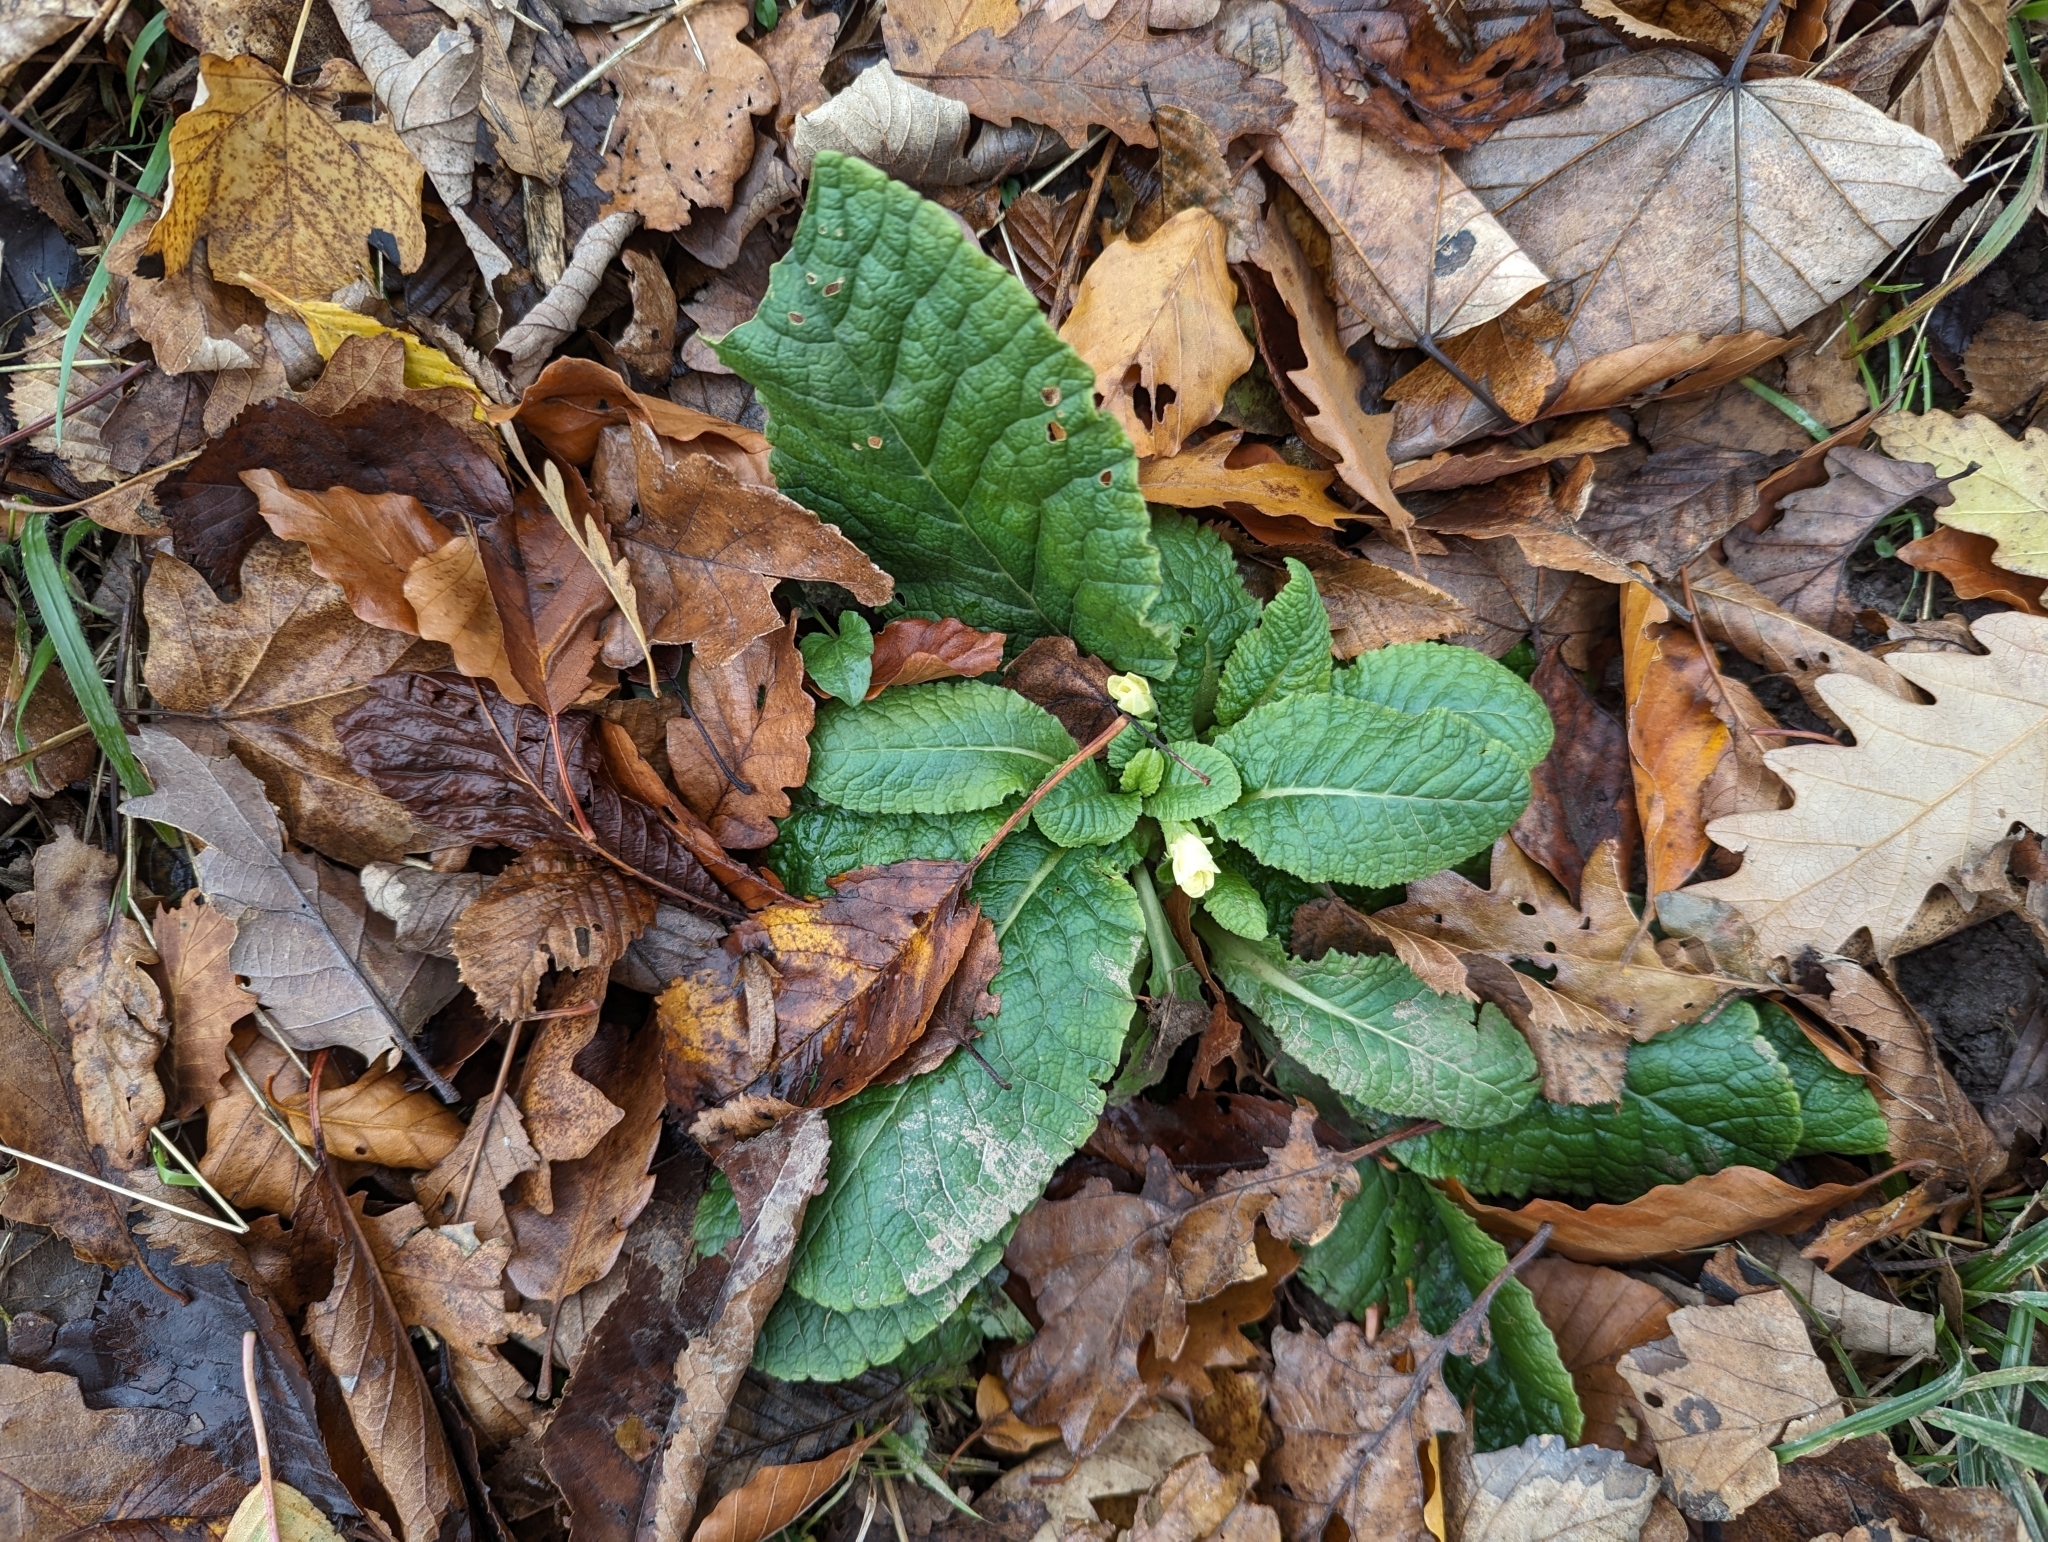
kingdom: Plantae
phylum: Tracheophyta
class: Magnoliopsida
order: Ericales
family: Primulaceae
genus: Primula
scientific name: Primula vulgaris
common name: Primrose
